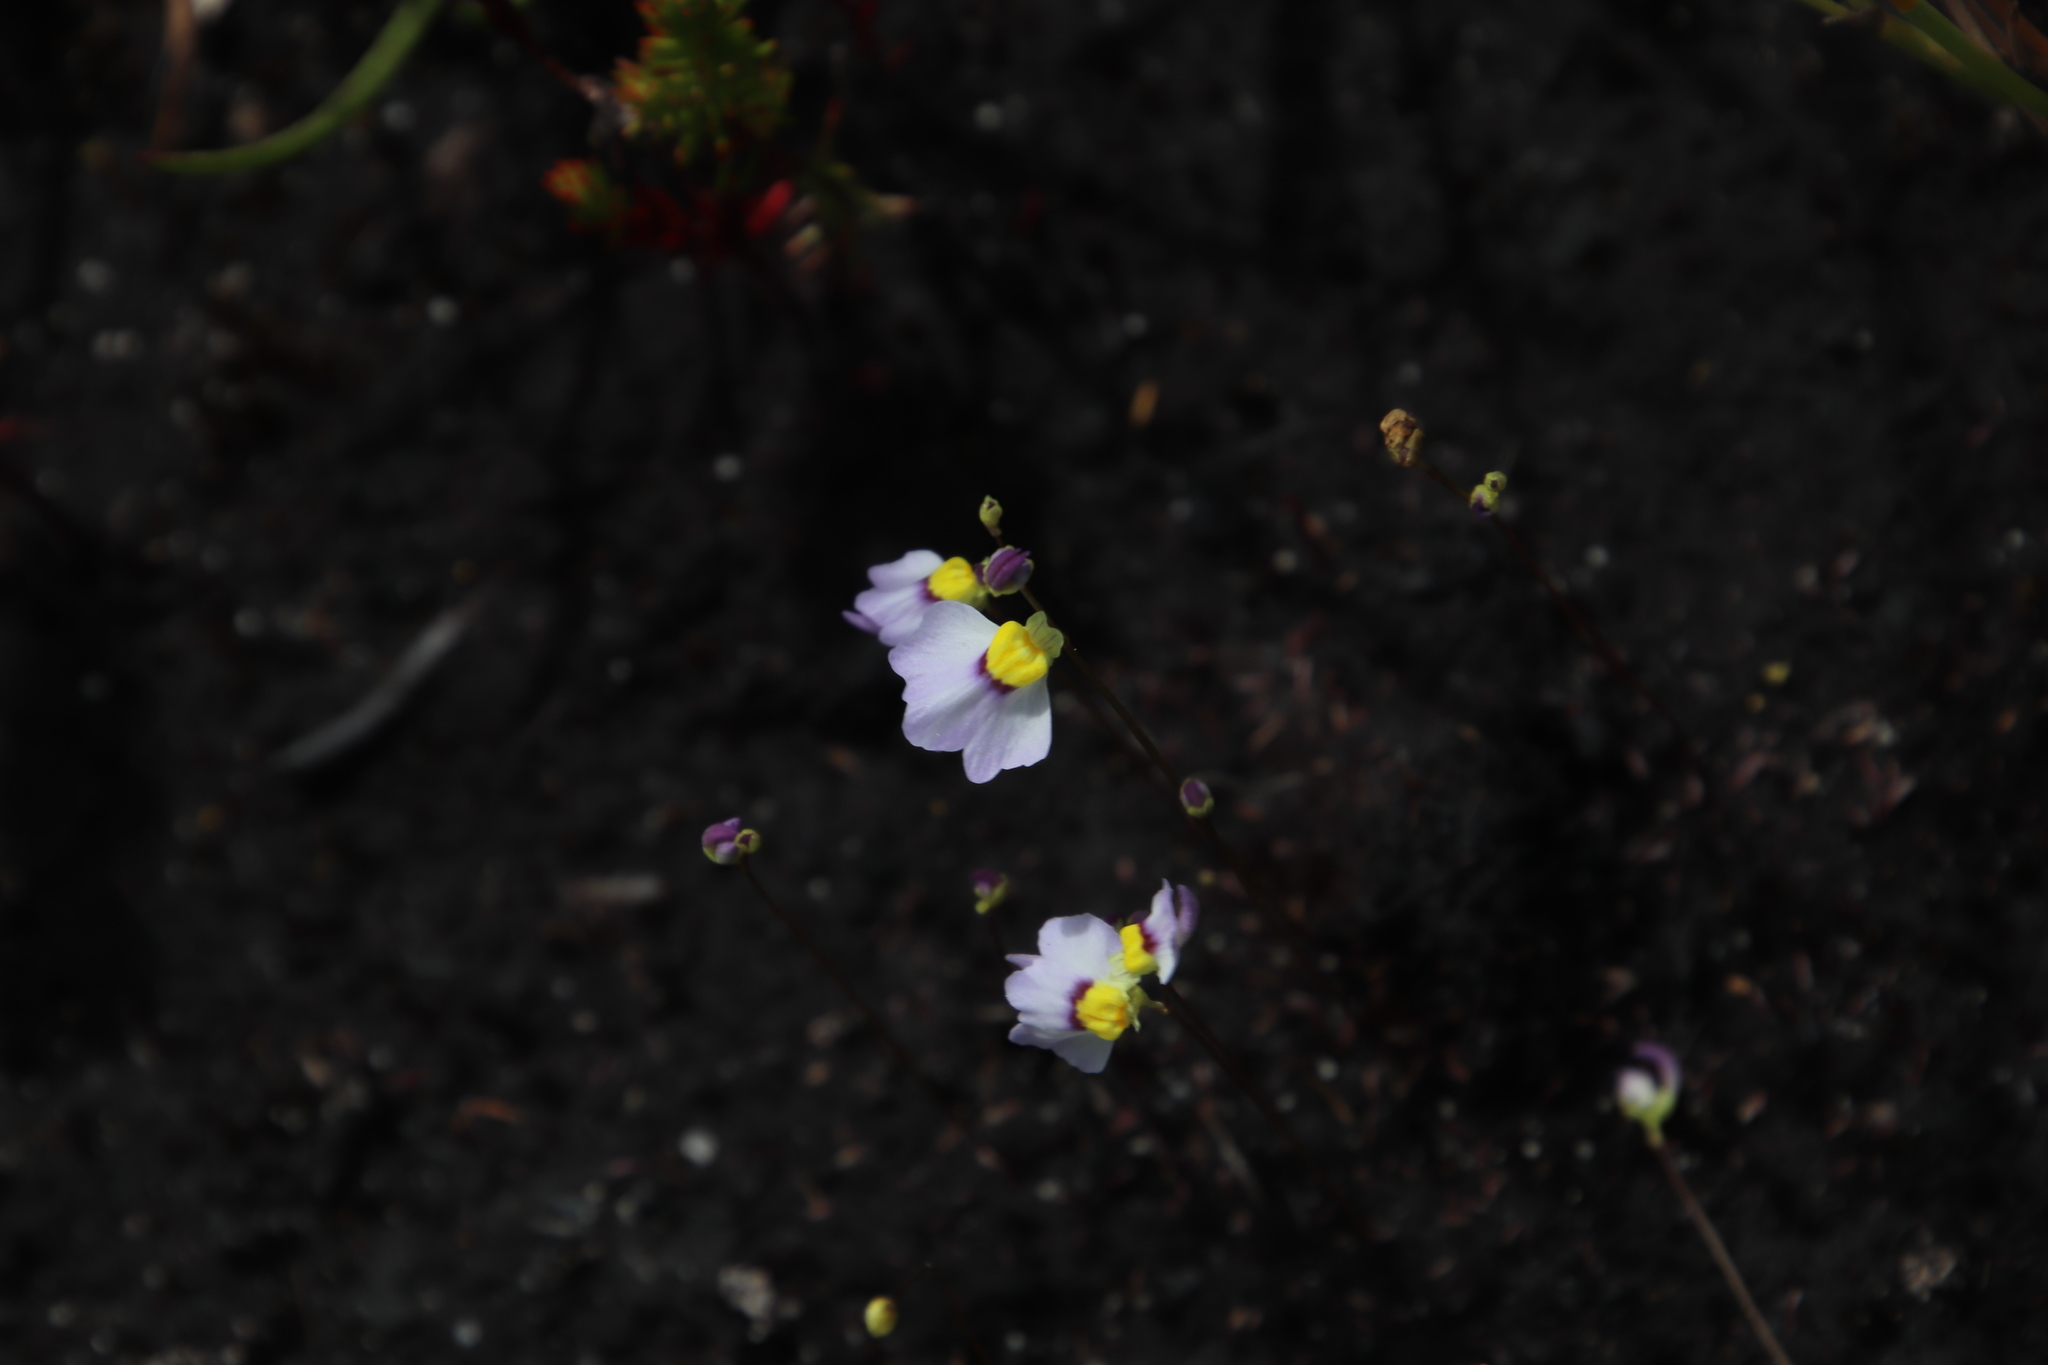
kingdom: Plantae
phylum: Tracheophyta
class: Magnoliopsida
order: Lamiales
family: Lentibulariaceae
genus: Utricularia
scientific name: Utricularia bisquamata
